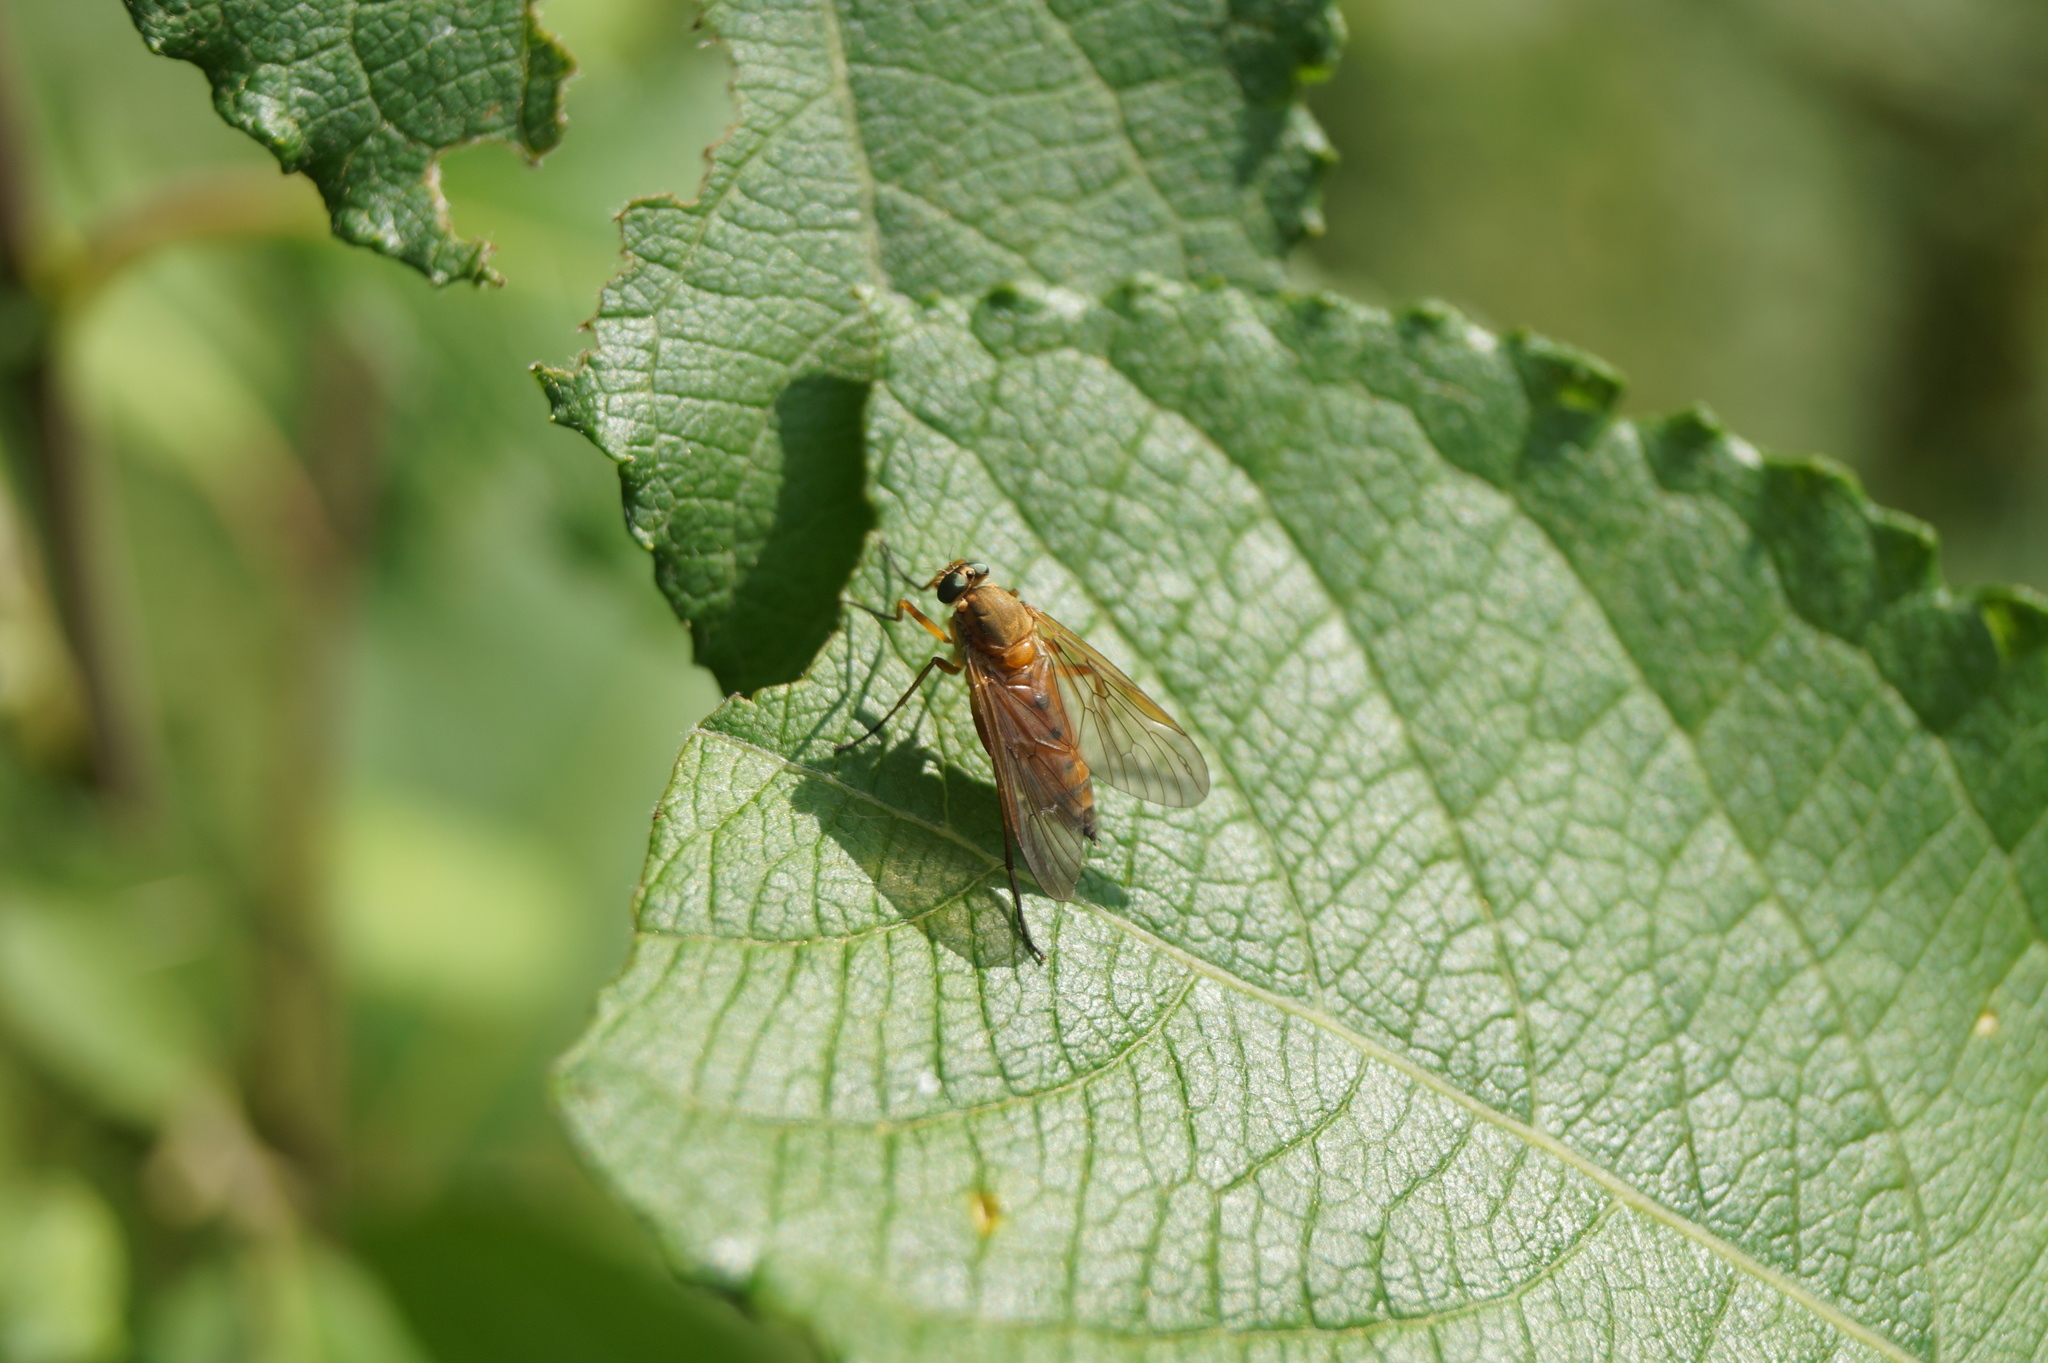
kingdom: Animalia
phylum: Arthropoda
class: Insecta
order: Diptera
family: Rhagionidae
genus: Rhagio
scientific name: Rhagio tringaria
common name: Marsh snipefly
